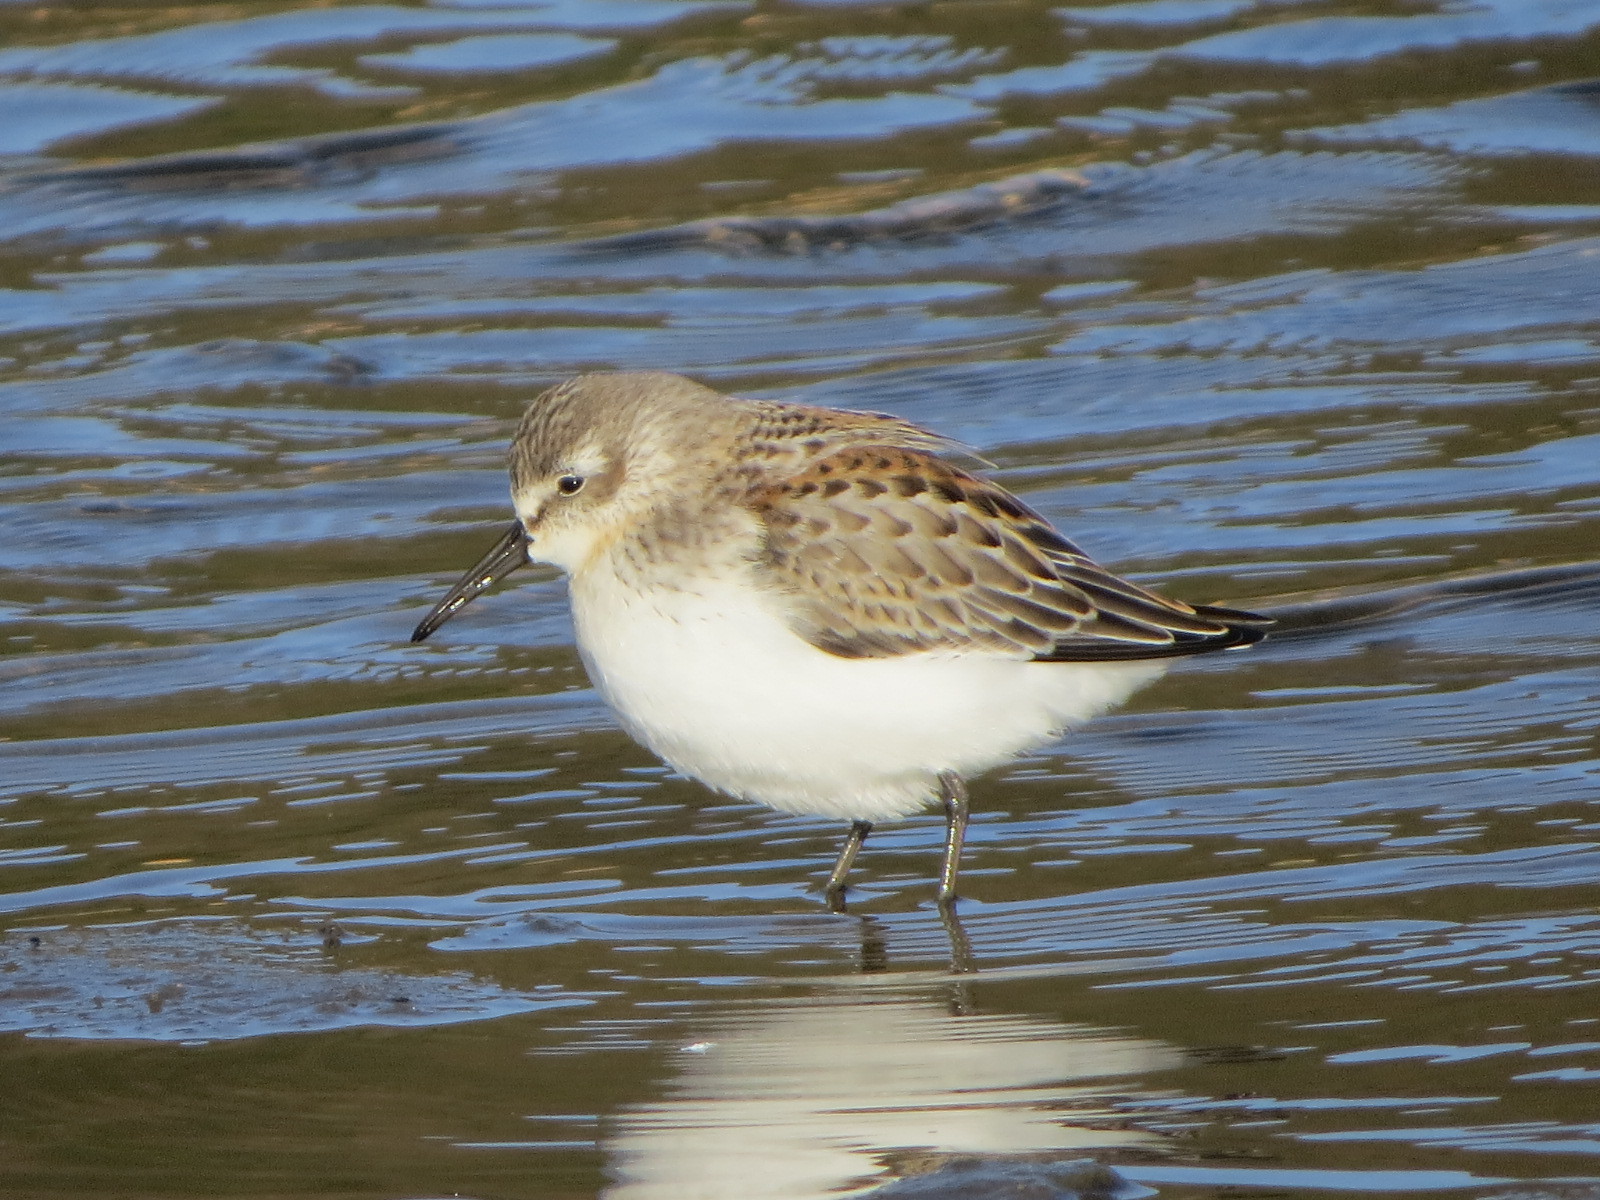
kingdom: Animalia
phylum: Chordata
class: Aves
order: Charadriiformes
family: Scolopacidae
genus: Calidris
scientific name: Calidris mauri
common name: Western sandpiper
